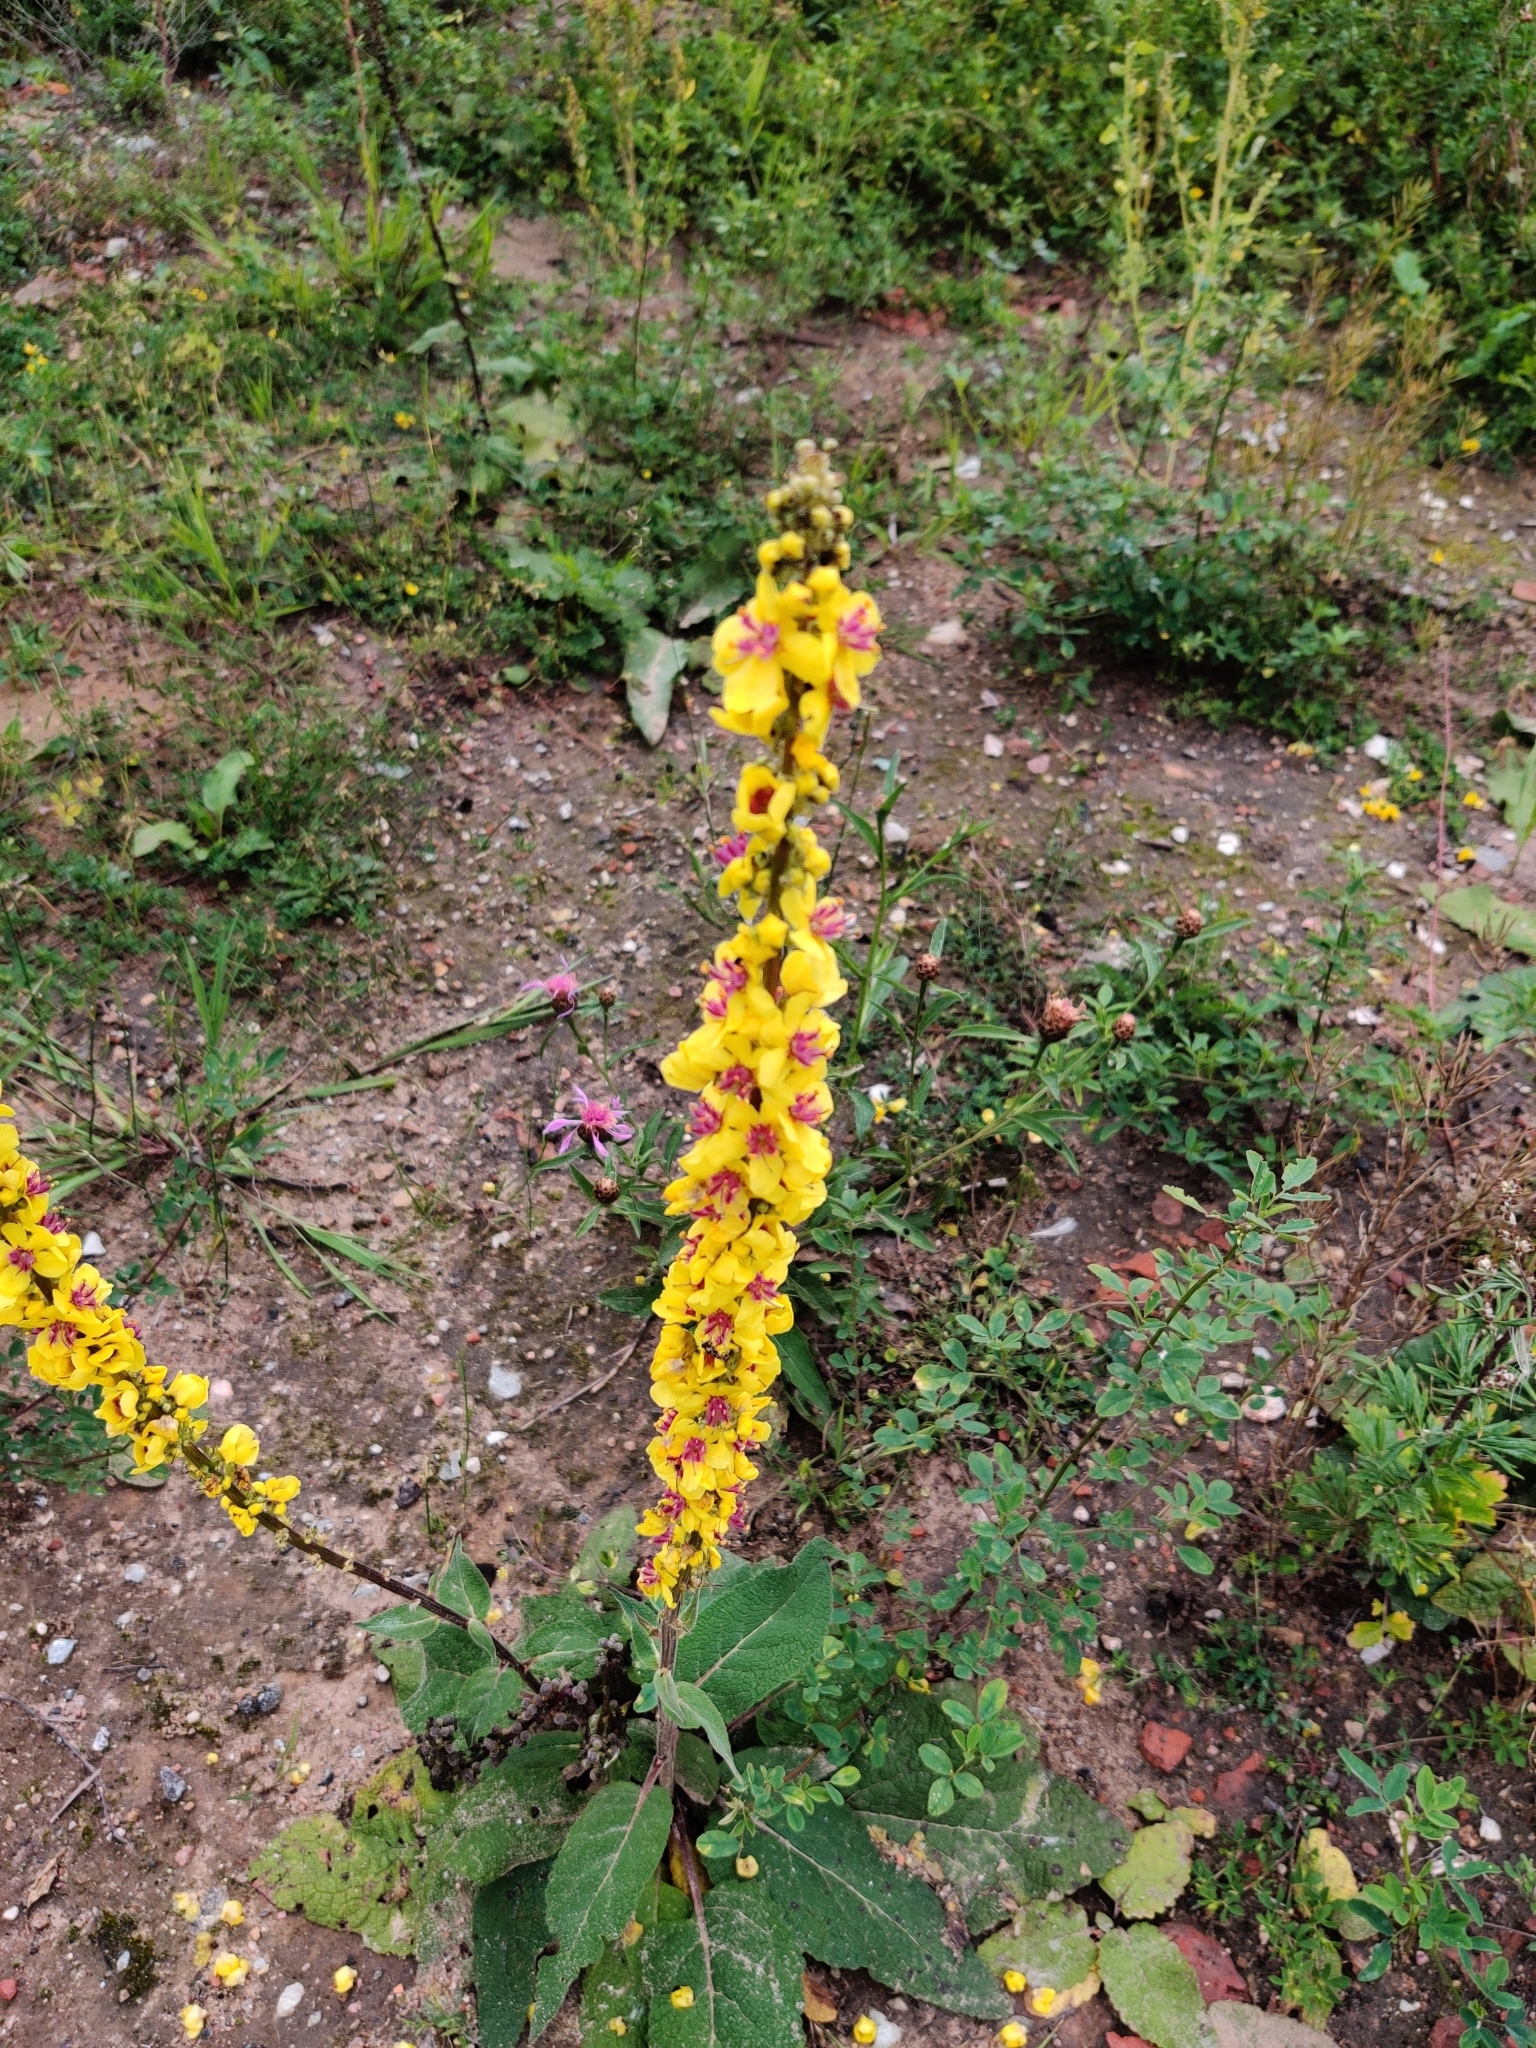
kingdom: Plantae
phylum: Tracheophyta
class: Magnoliopsida
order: Lamiales
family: Scrophulariaceae
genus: Verbascum
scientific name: Verbascum nigrum
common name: Dark mullein
